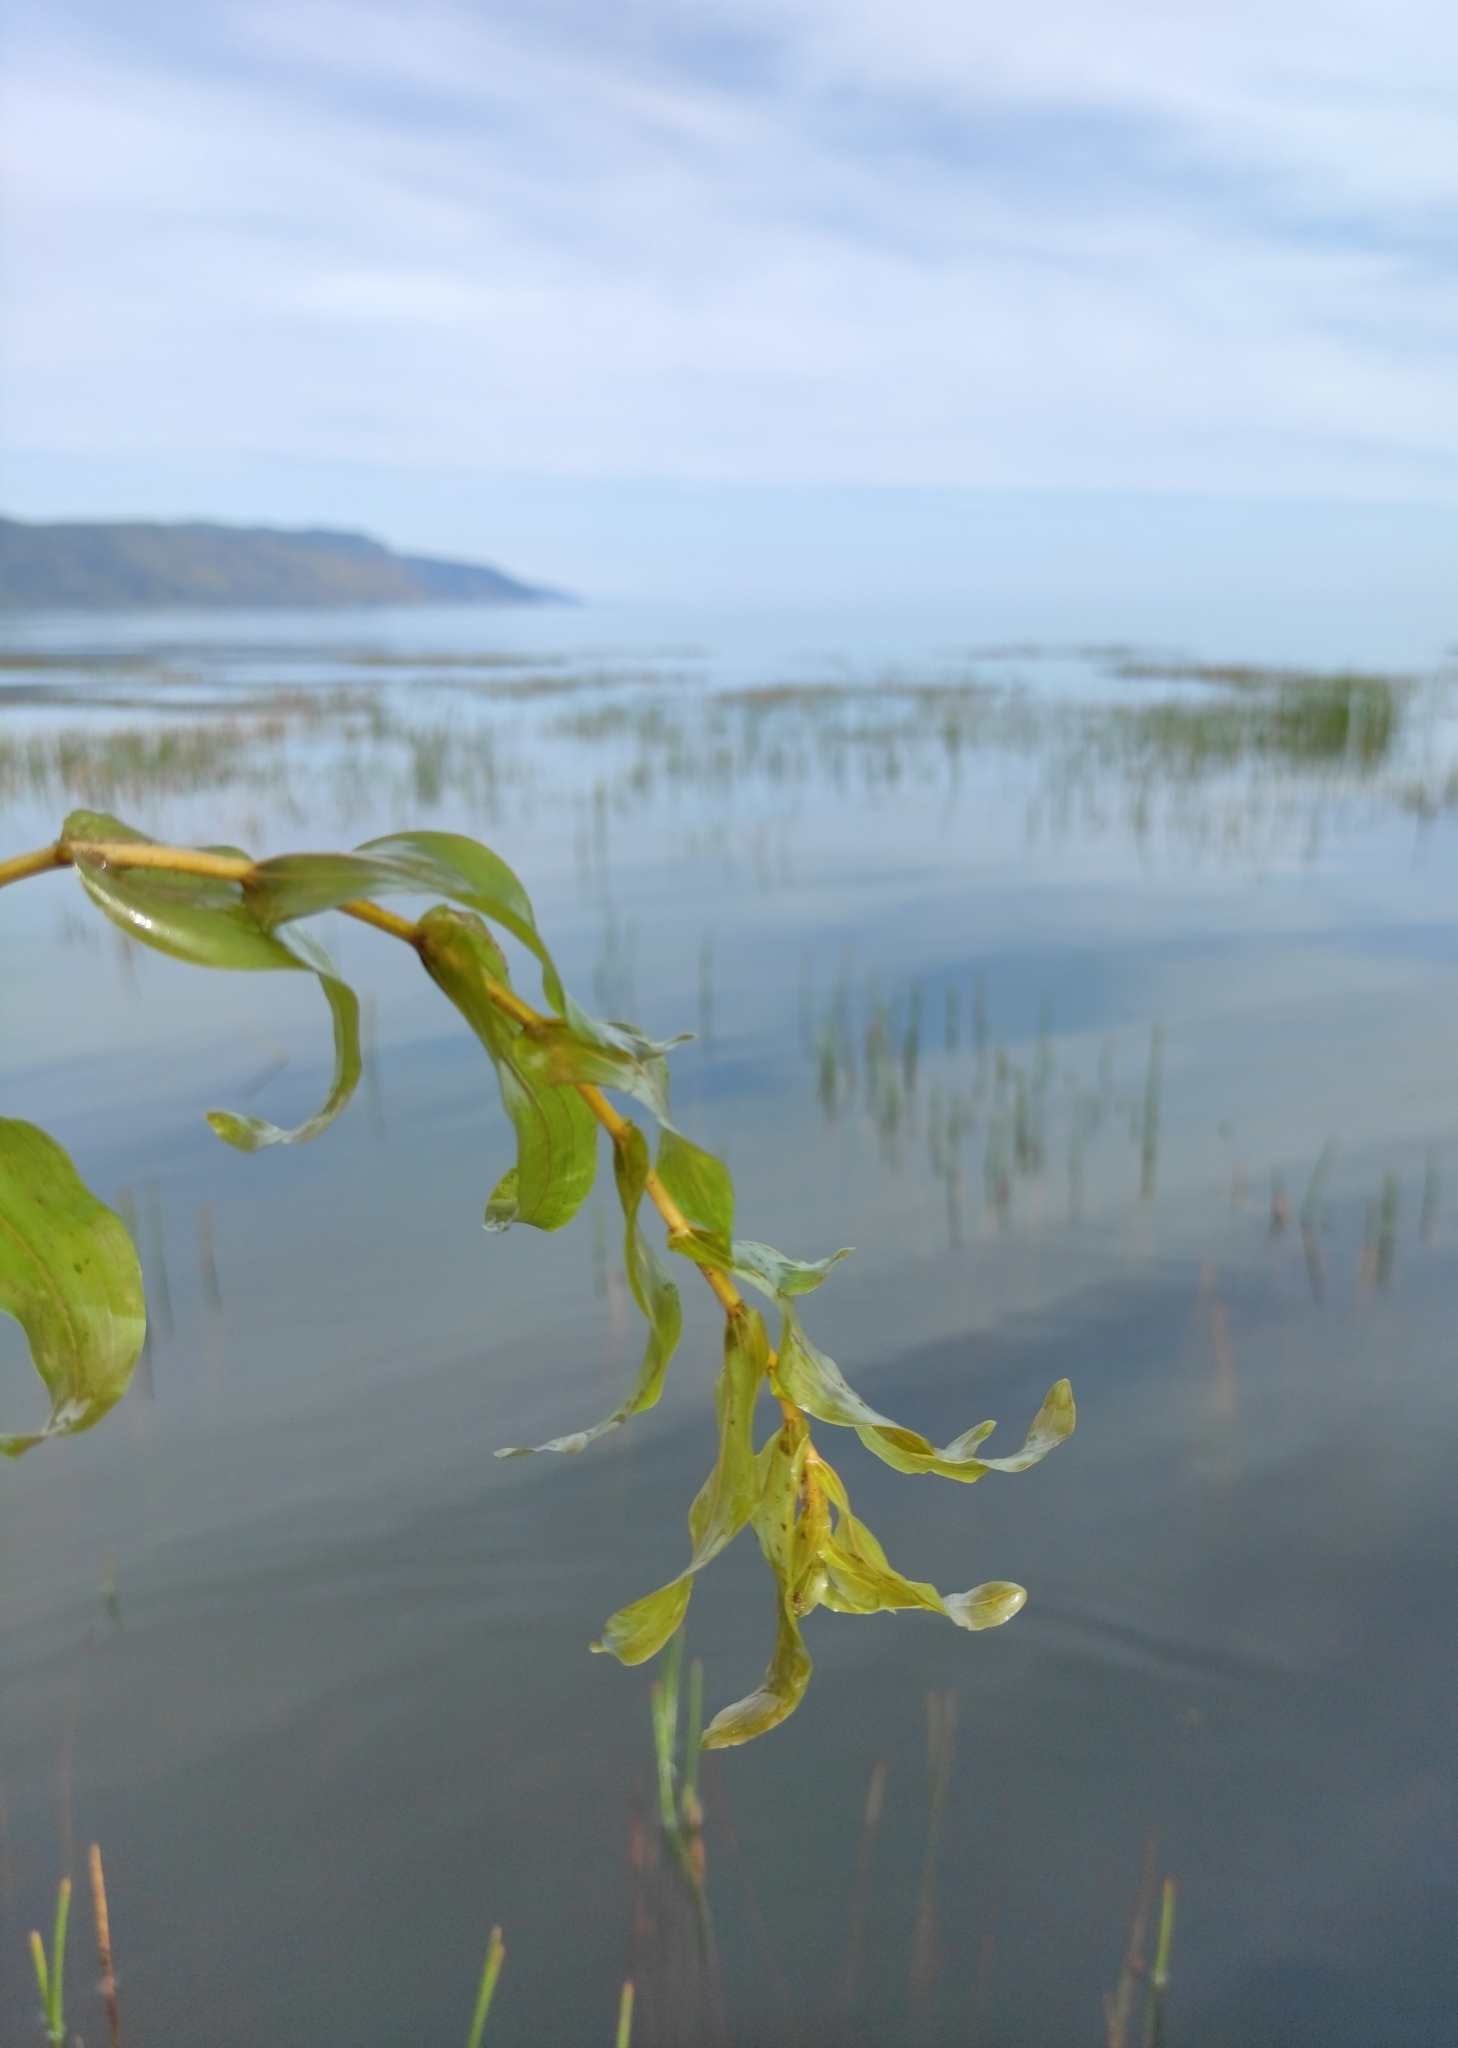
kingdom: Plantae
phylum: Tracheophyta
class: Liliopsida
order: Alismatales
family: Potamogetonaceae
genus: Potamogeton
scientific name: Potamogeton perfoliatus
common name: Perfoliate pondweed
